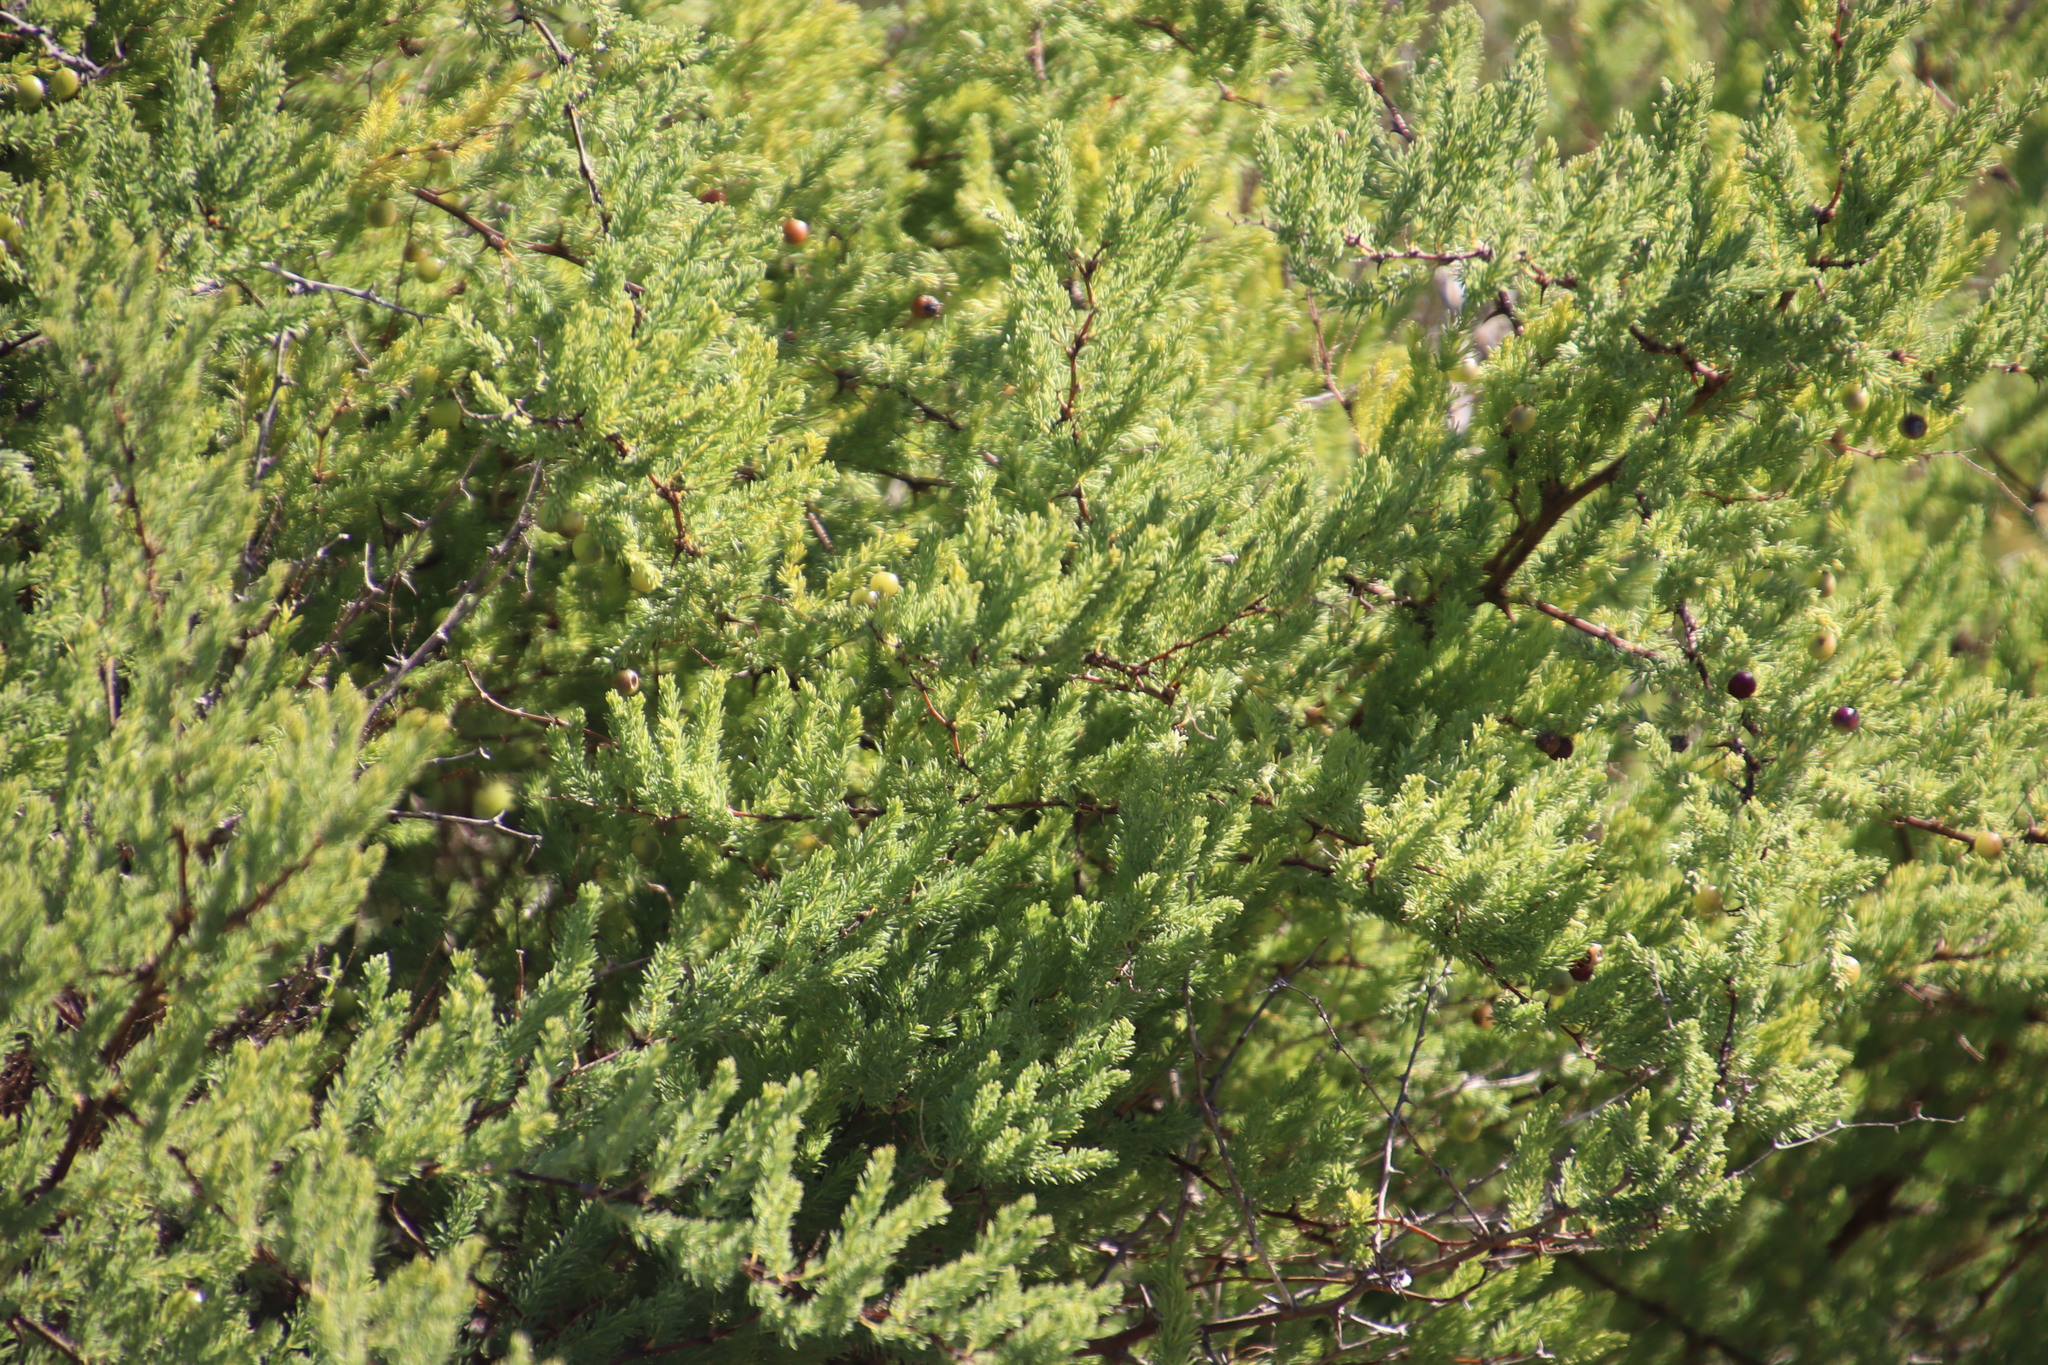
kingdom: Plantae
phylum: Tracheophyta
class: Liliopsida
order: Asparagales
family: Asparagaceae
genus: Asparagus
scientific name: Asparagus rubicundus
